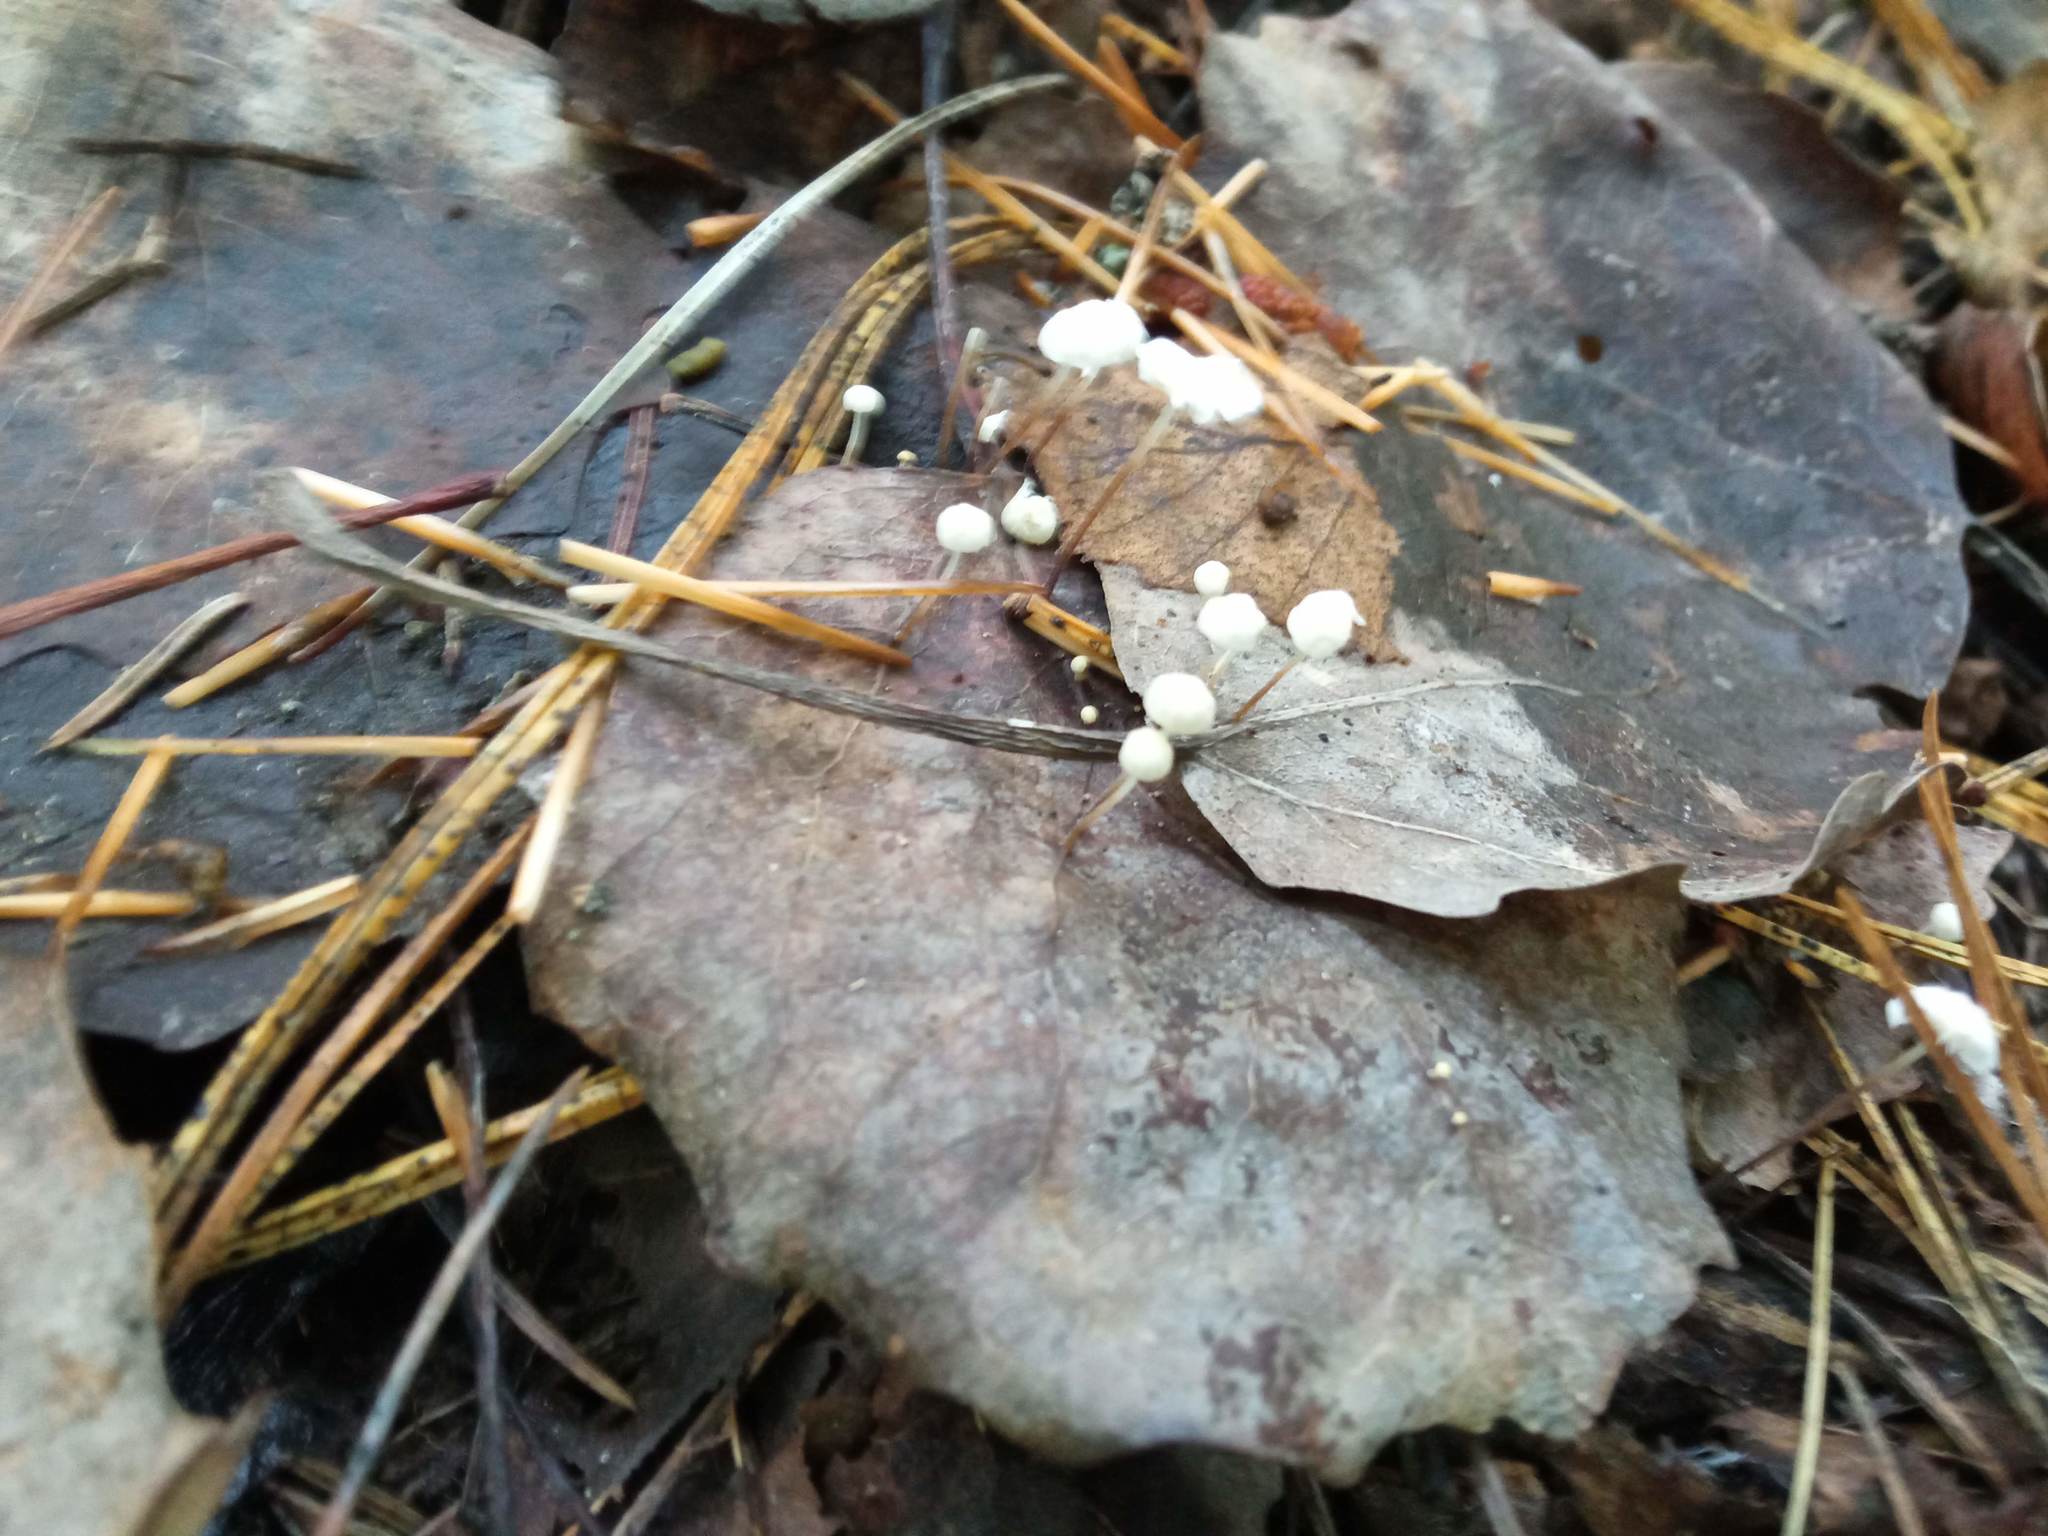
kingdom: Fungi
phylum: Basidiomycota
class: Agaricomycetes
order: Agaricales
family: Physalacriaceae
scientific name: Physalacriaceae
